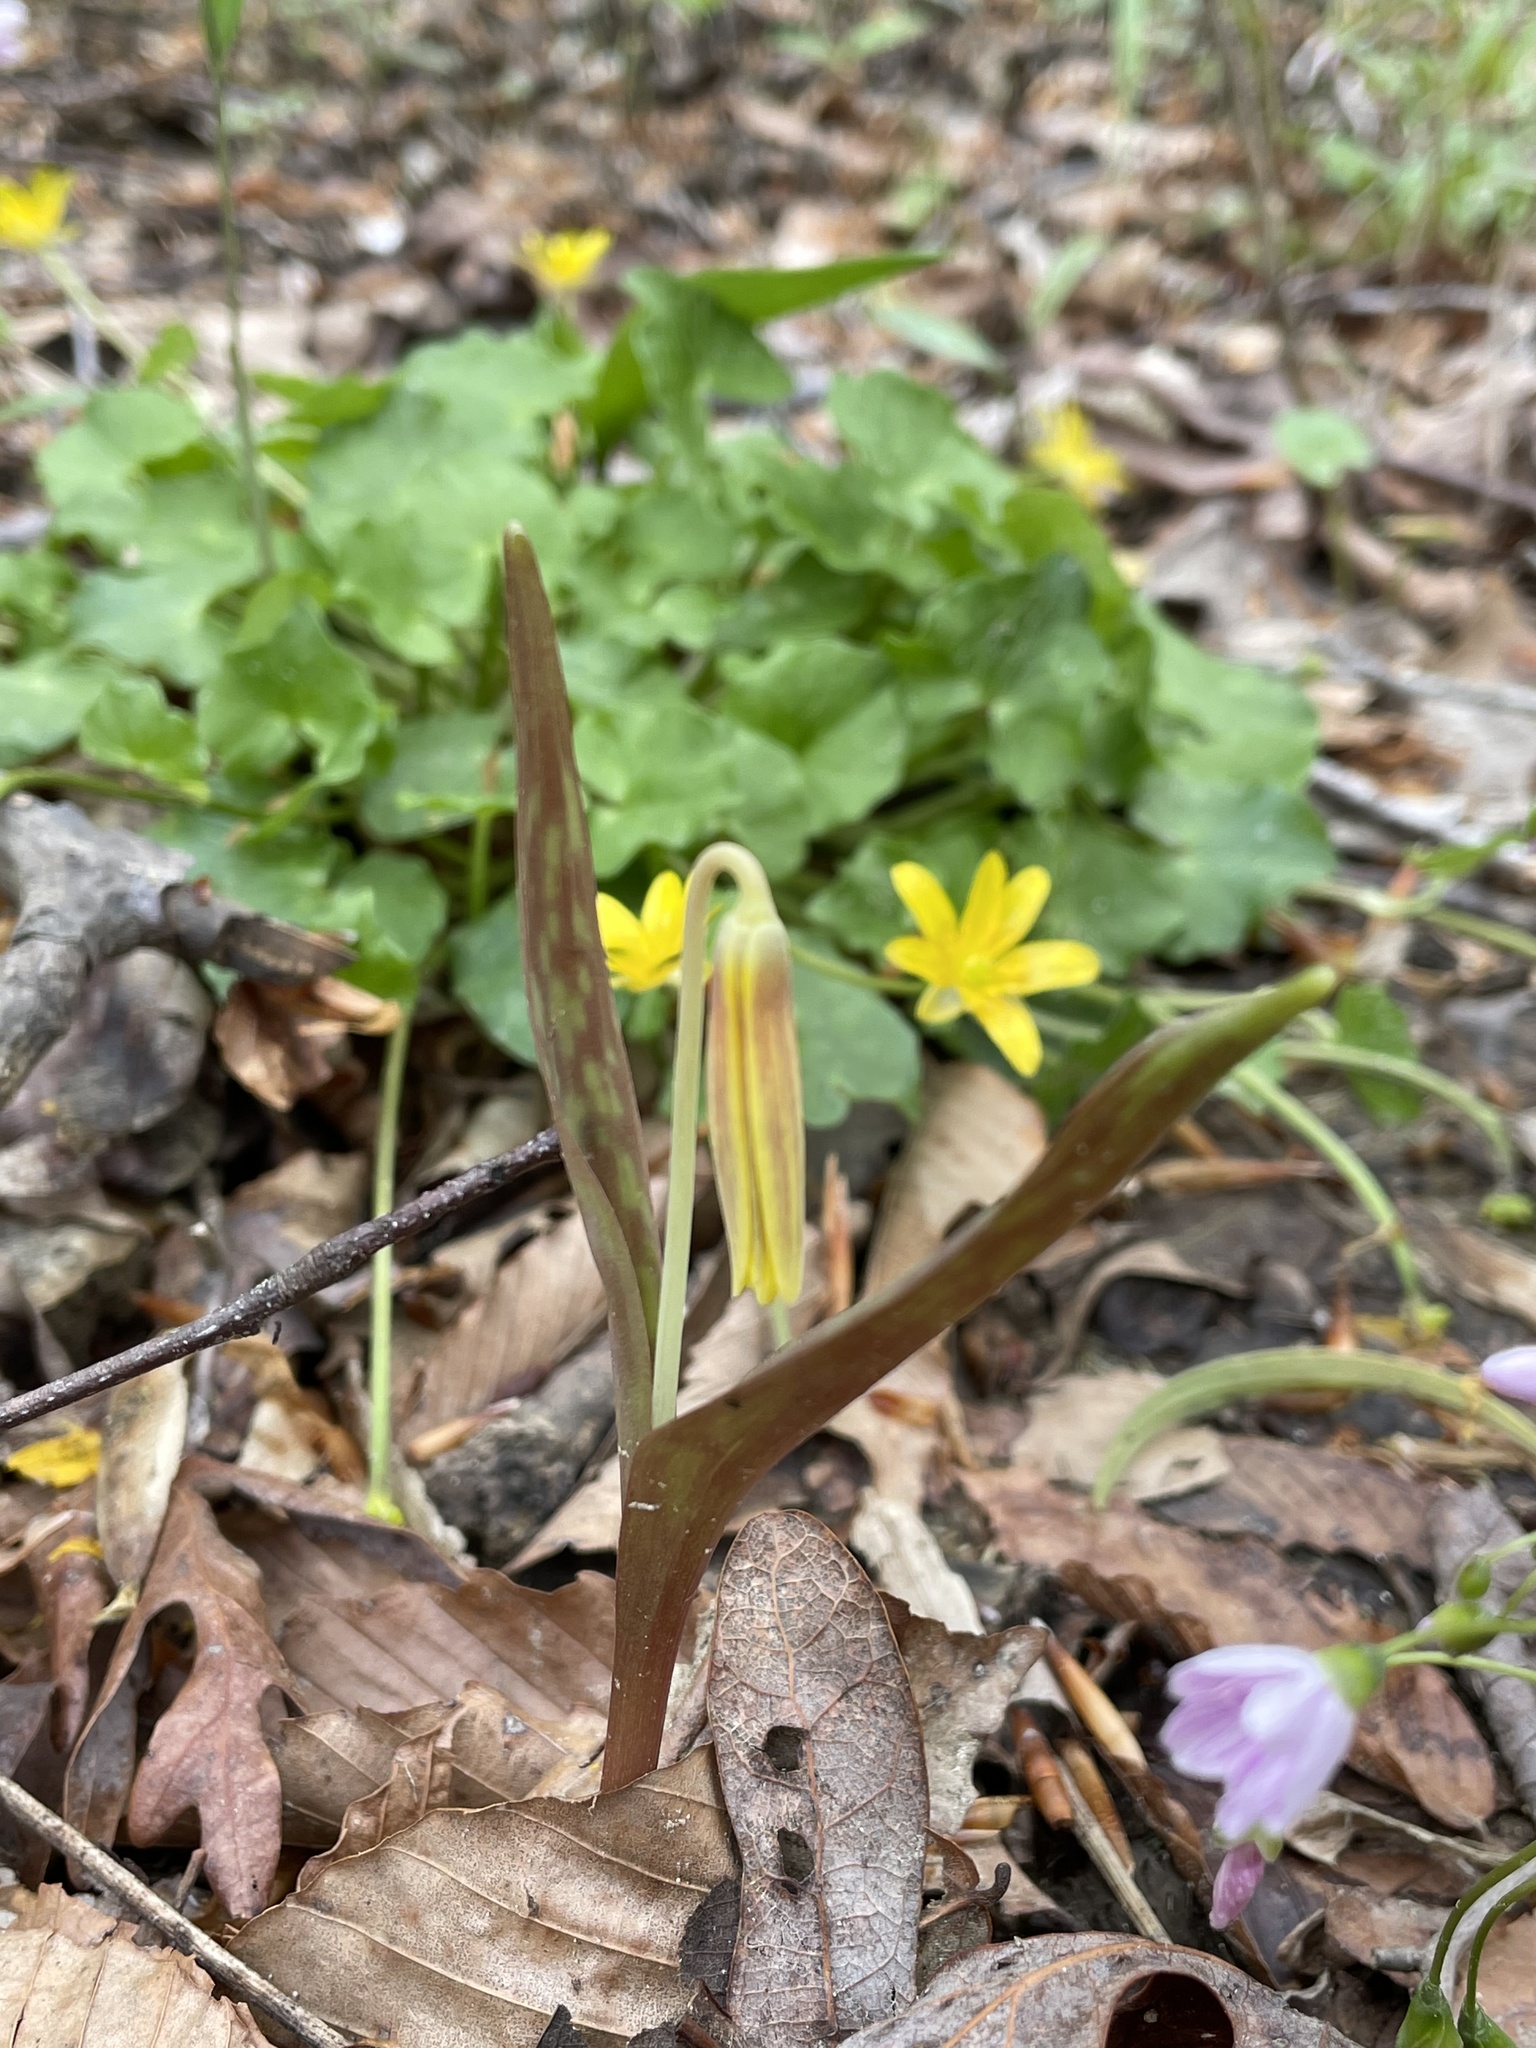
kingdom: Plantae
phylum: Tracheophyta
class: Liliopsida
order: Liliales
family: Liliaceae
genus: Erythronium
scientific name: Erythronium americanum
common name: Yellow adder's-tongue
